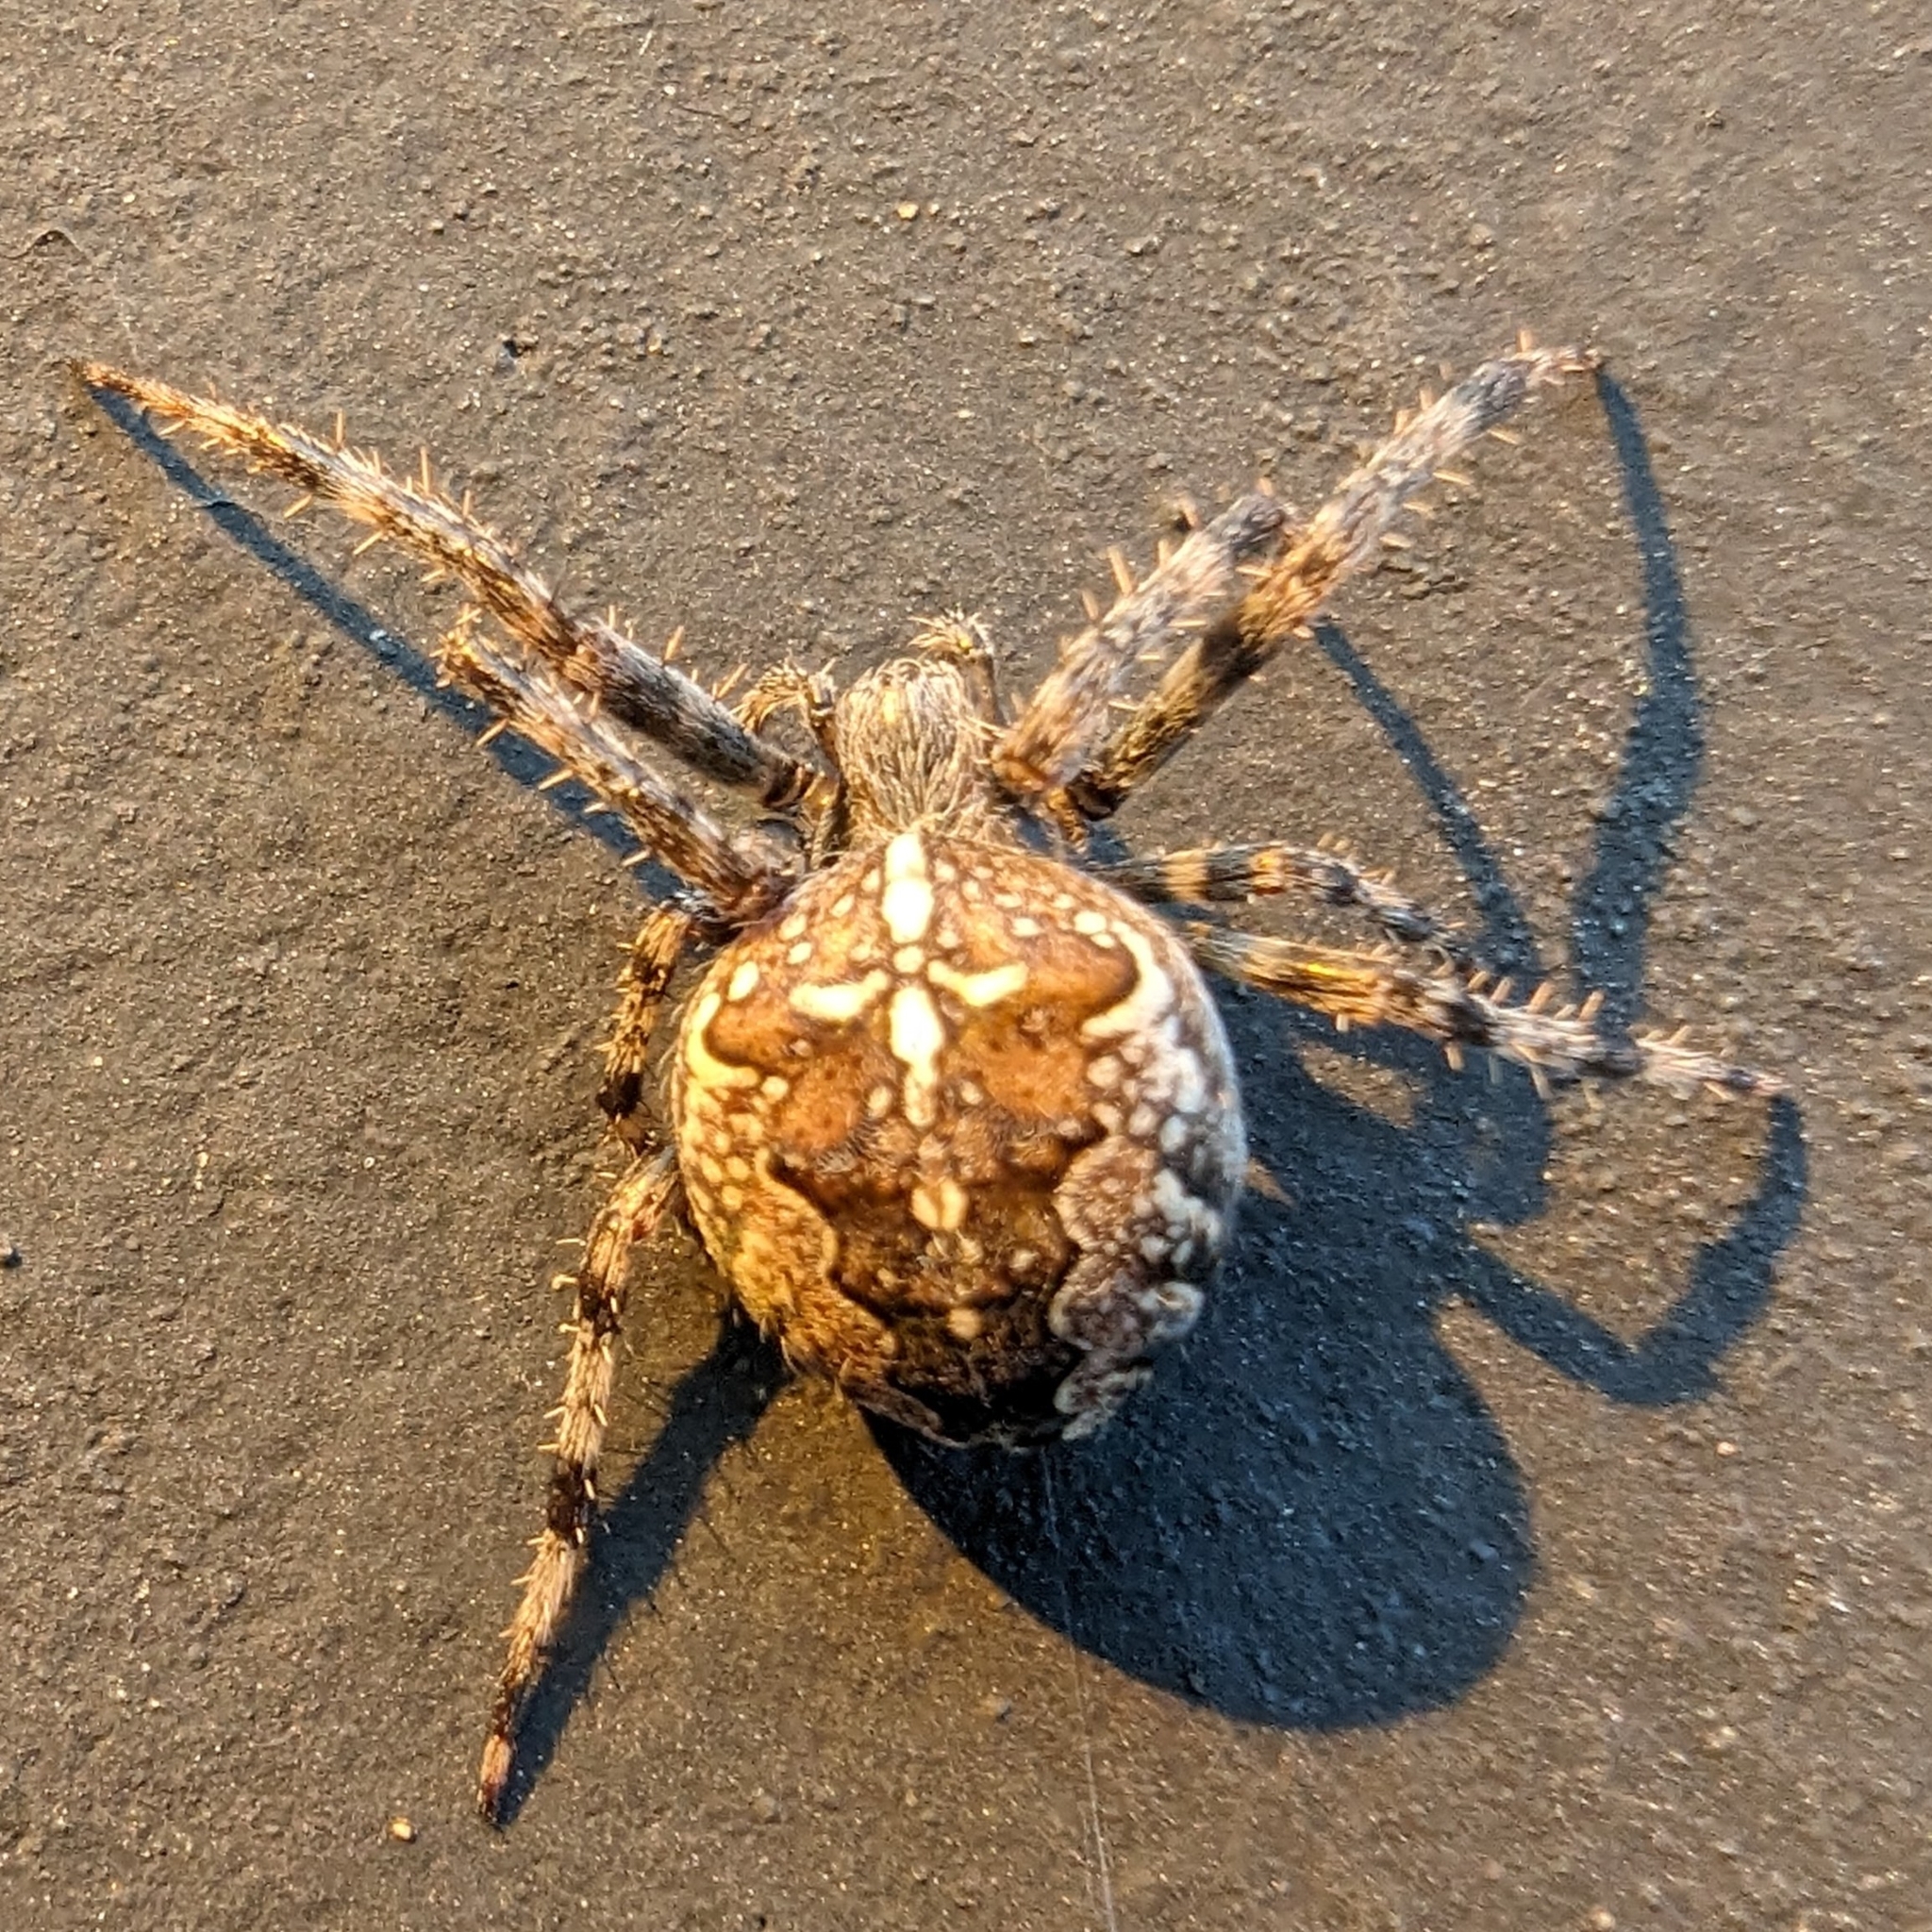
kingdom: Animalia
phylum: Arthropoda
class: Arachnida
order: Araneae
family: Araneidae
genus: Araneus
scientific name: Araneus diadematus
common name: Cross orbweaver
